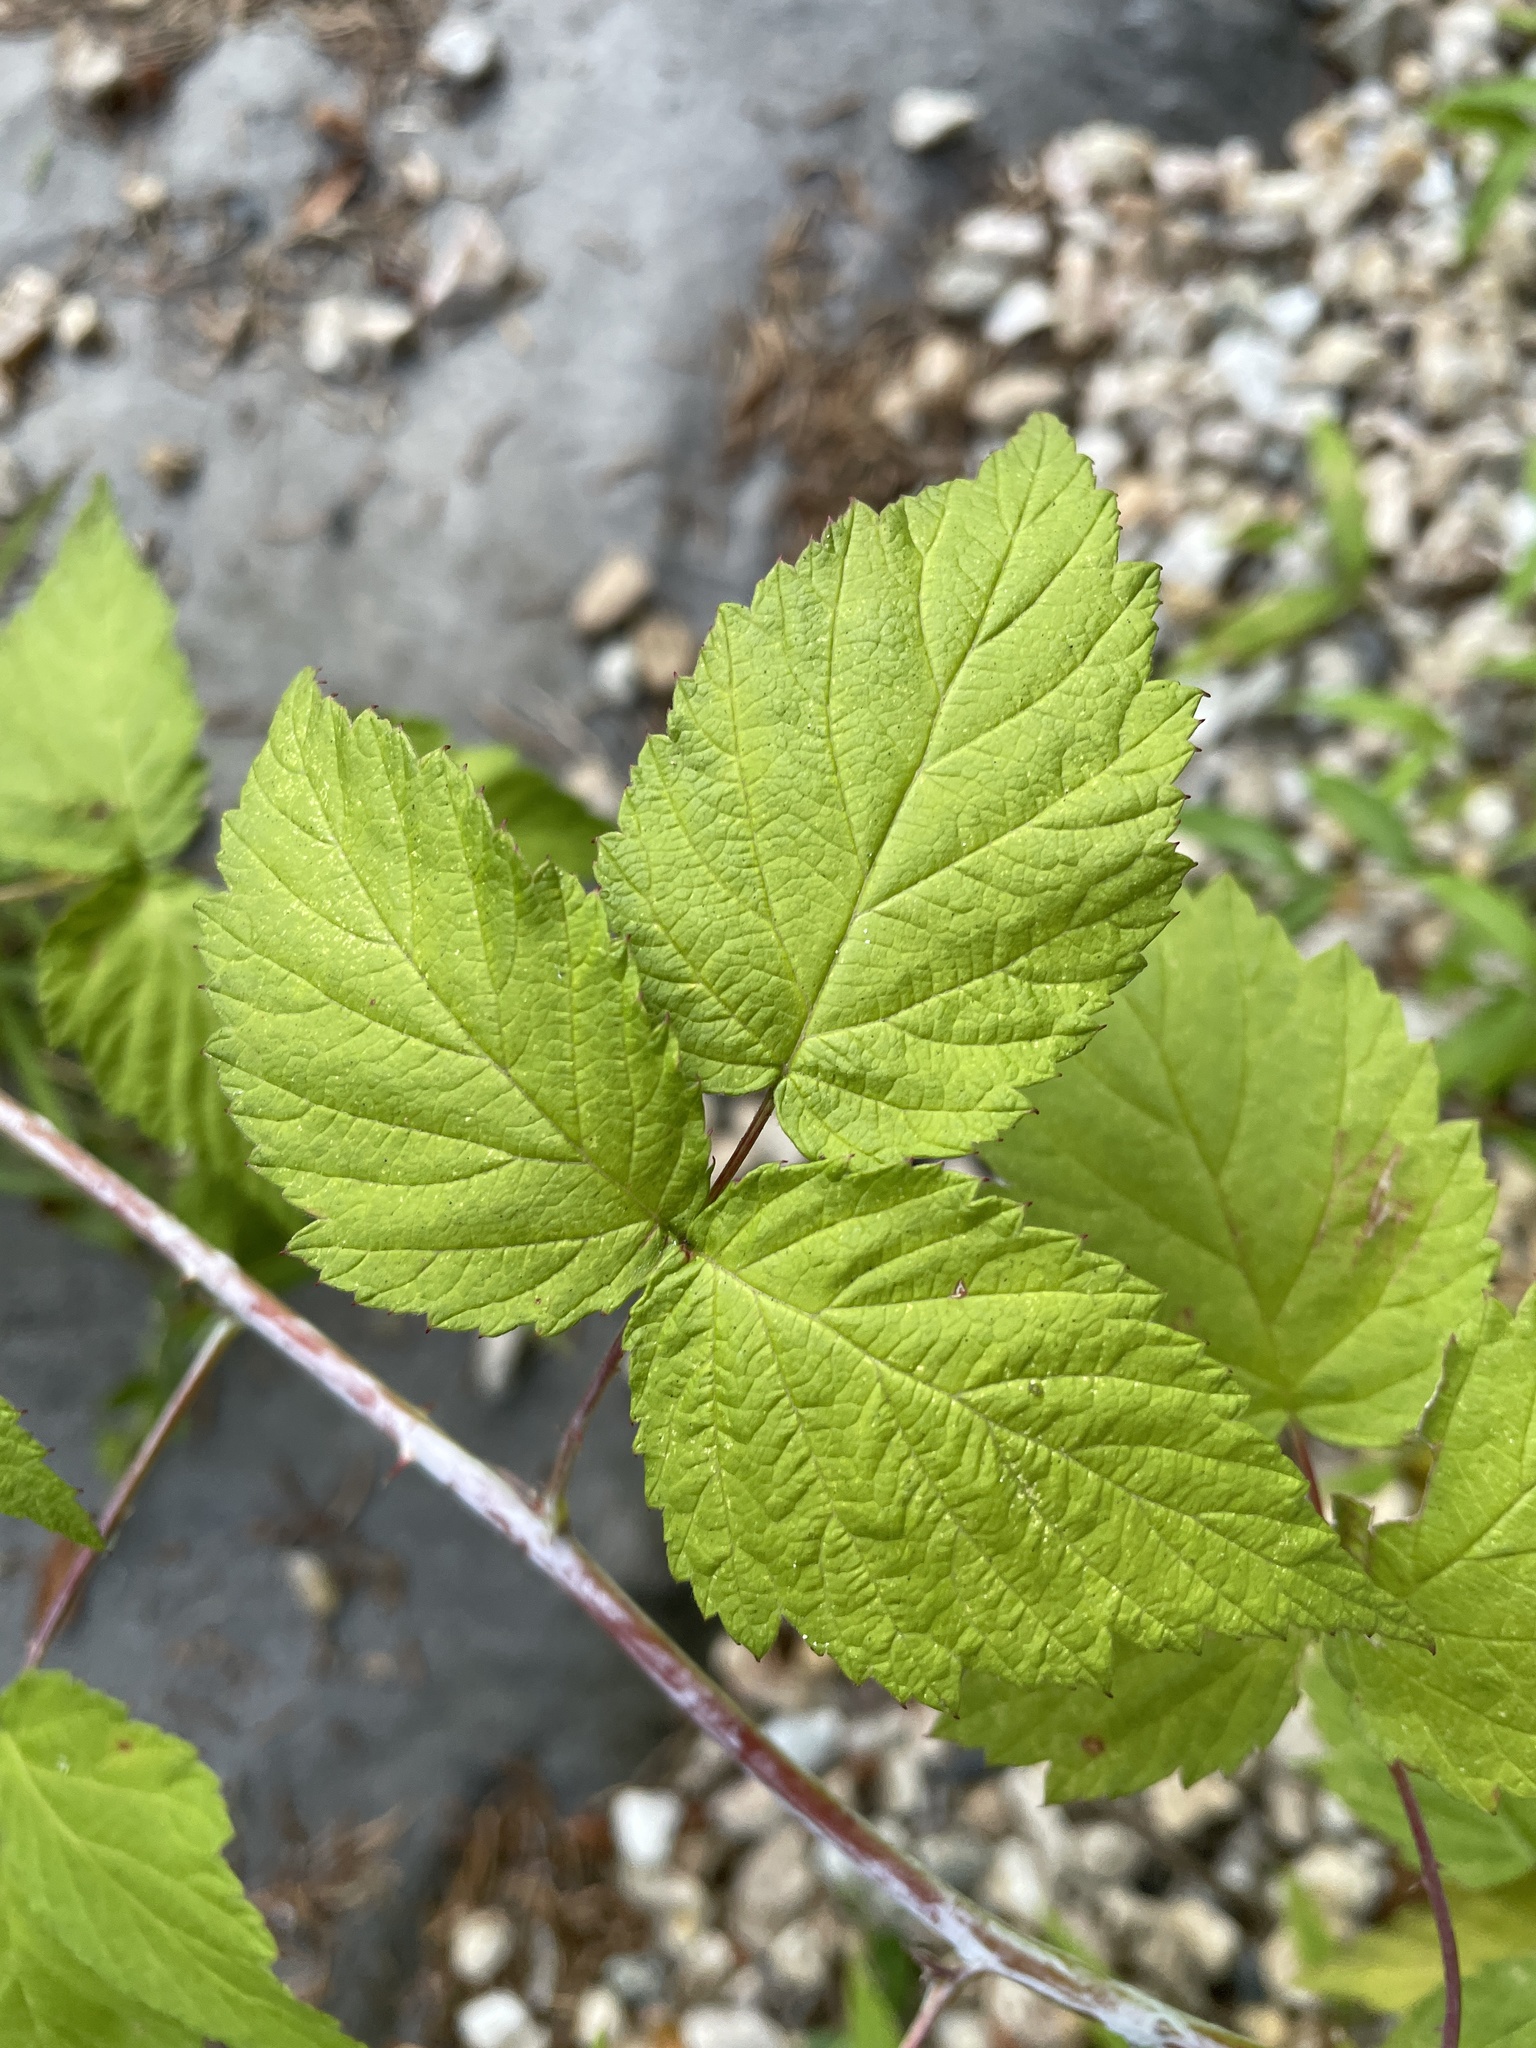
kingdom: Plantae
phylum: Tracheophyta
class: Magnoliopsida
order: Rosales
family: Rosaceae
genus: Rubus
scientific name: Rubus occidentalis
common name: Black raspberry
